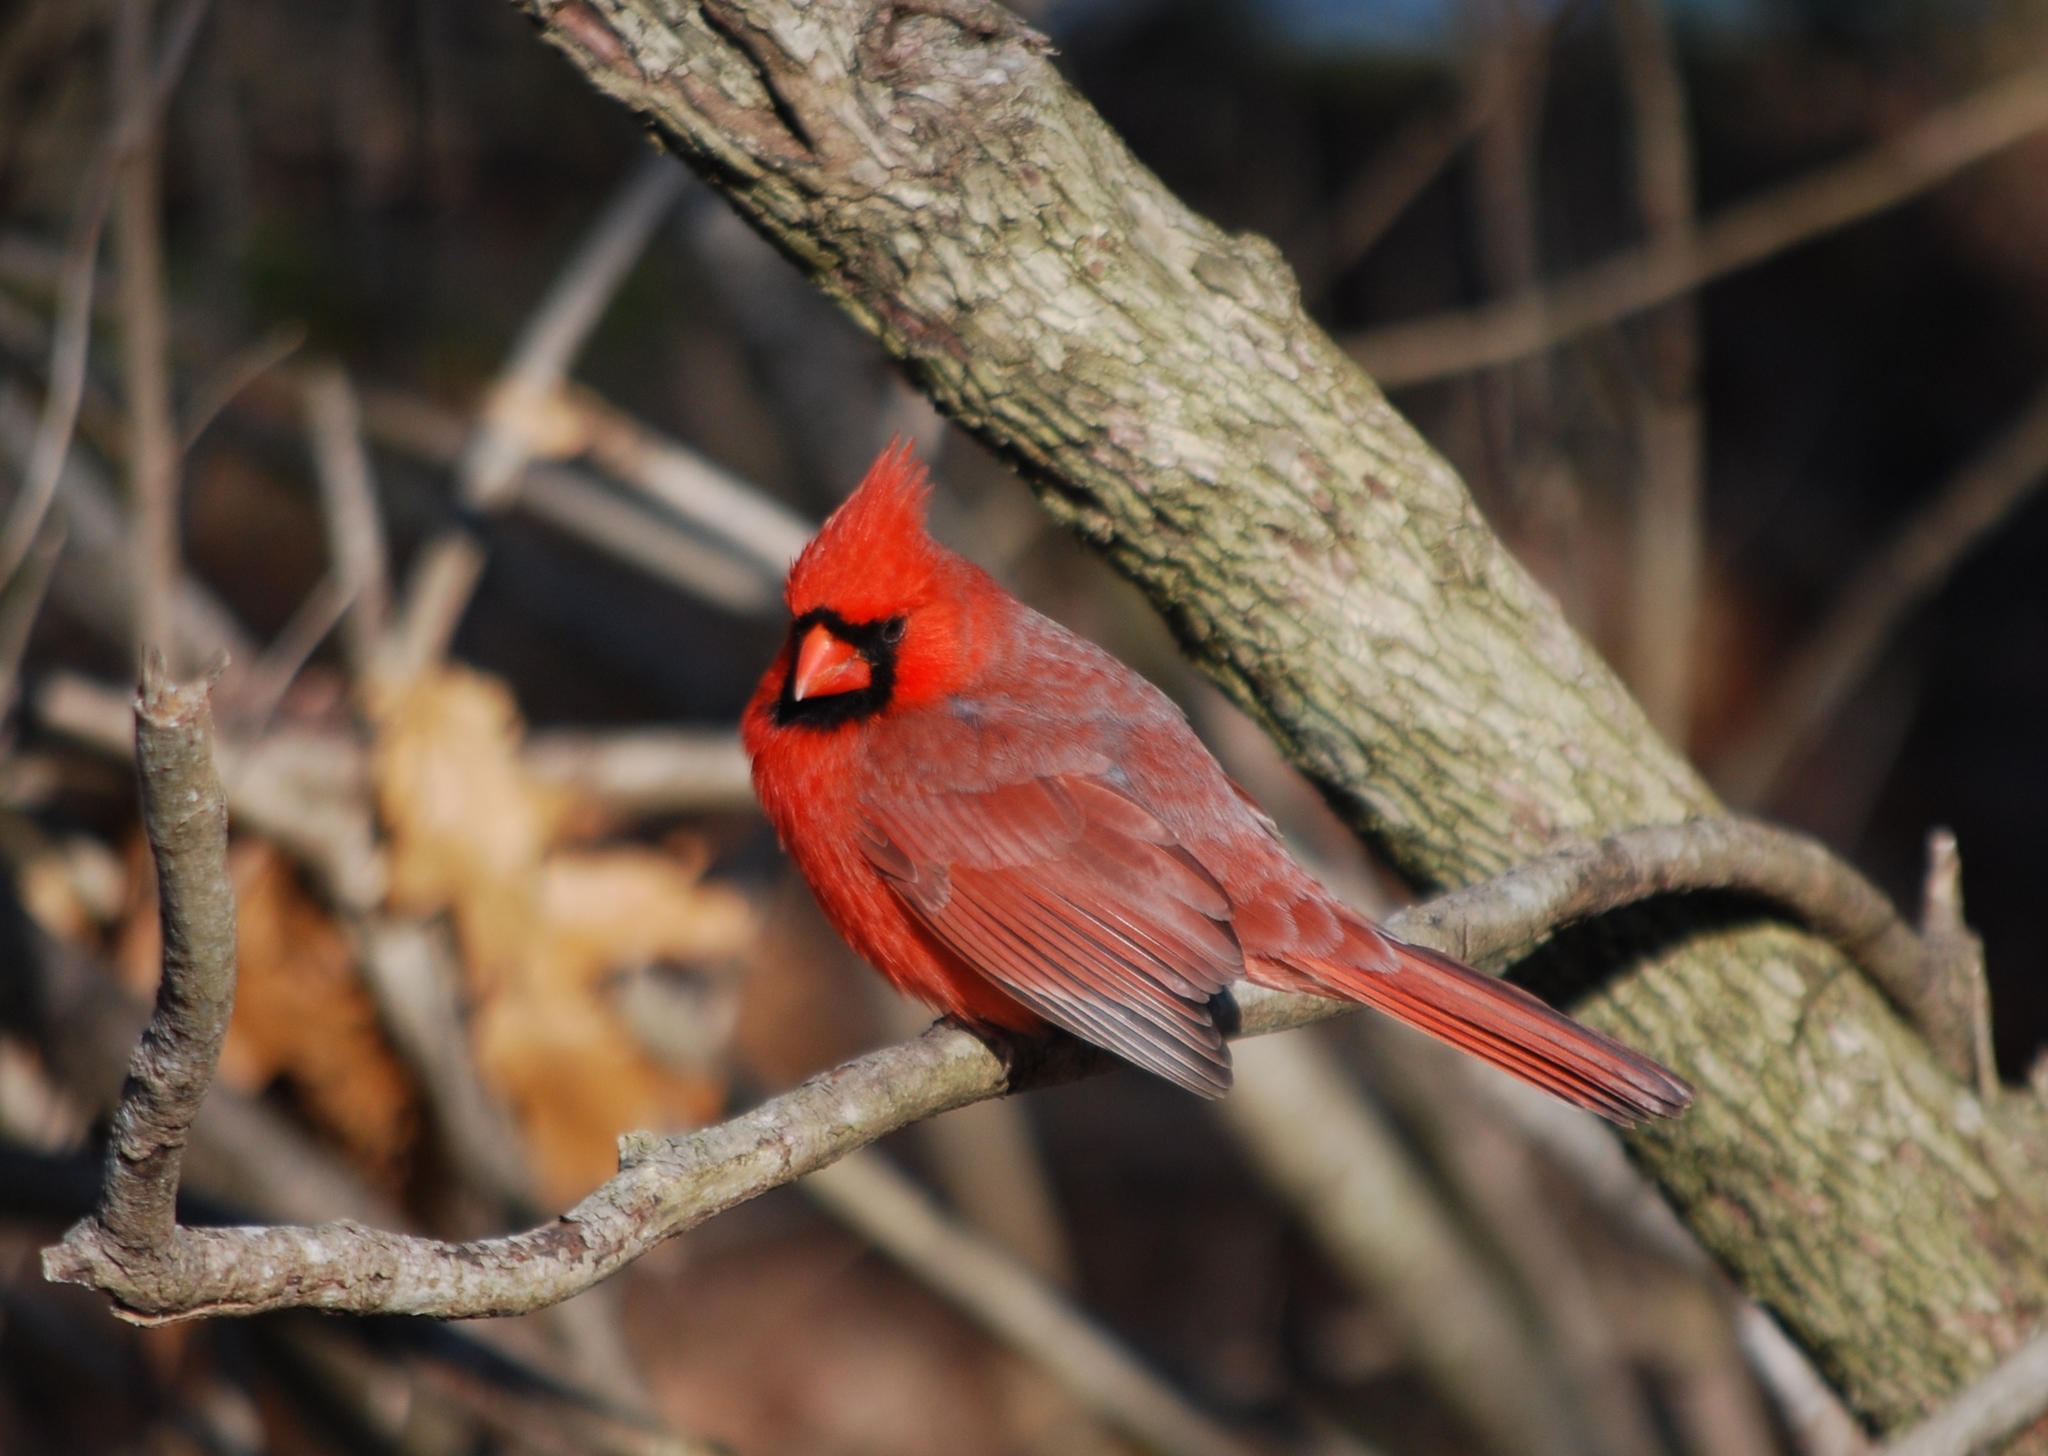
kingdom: Animalia
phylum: Chordata
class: Aves
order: Passeriformes
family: Cardinalidae
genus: Cardinalis
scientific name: Cardinalis cardinalis
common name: Northern cardinal
